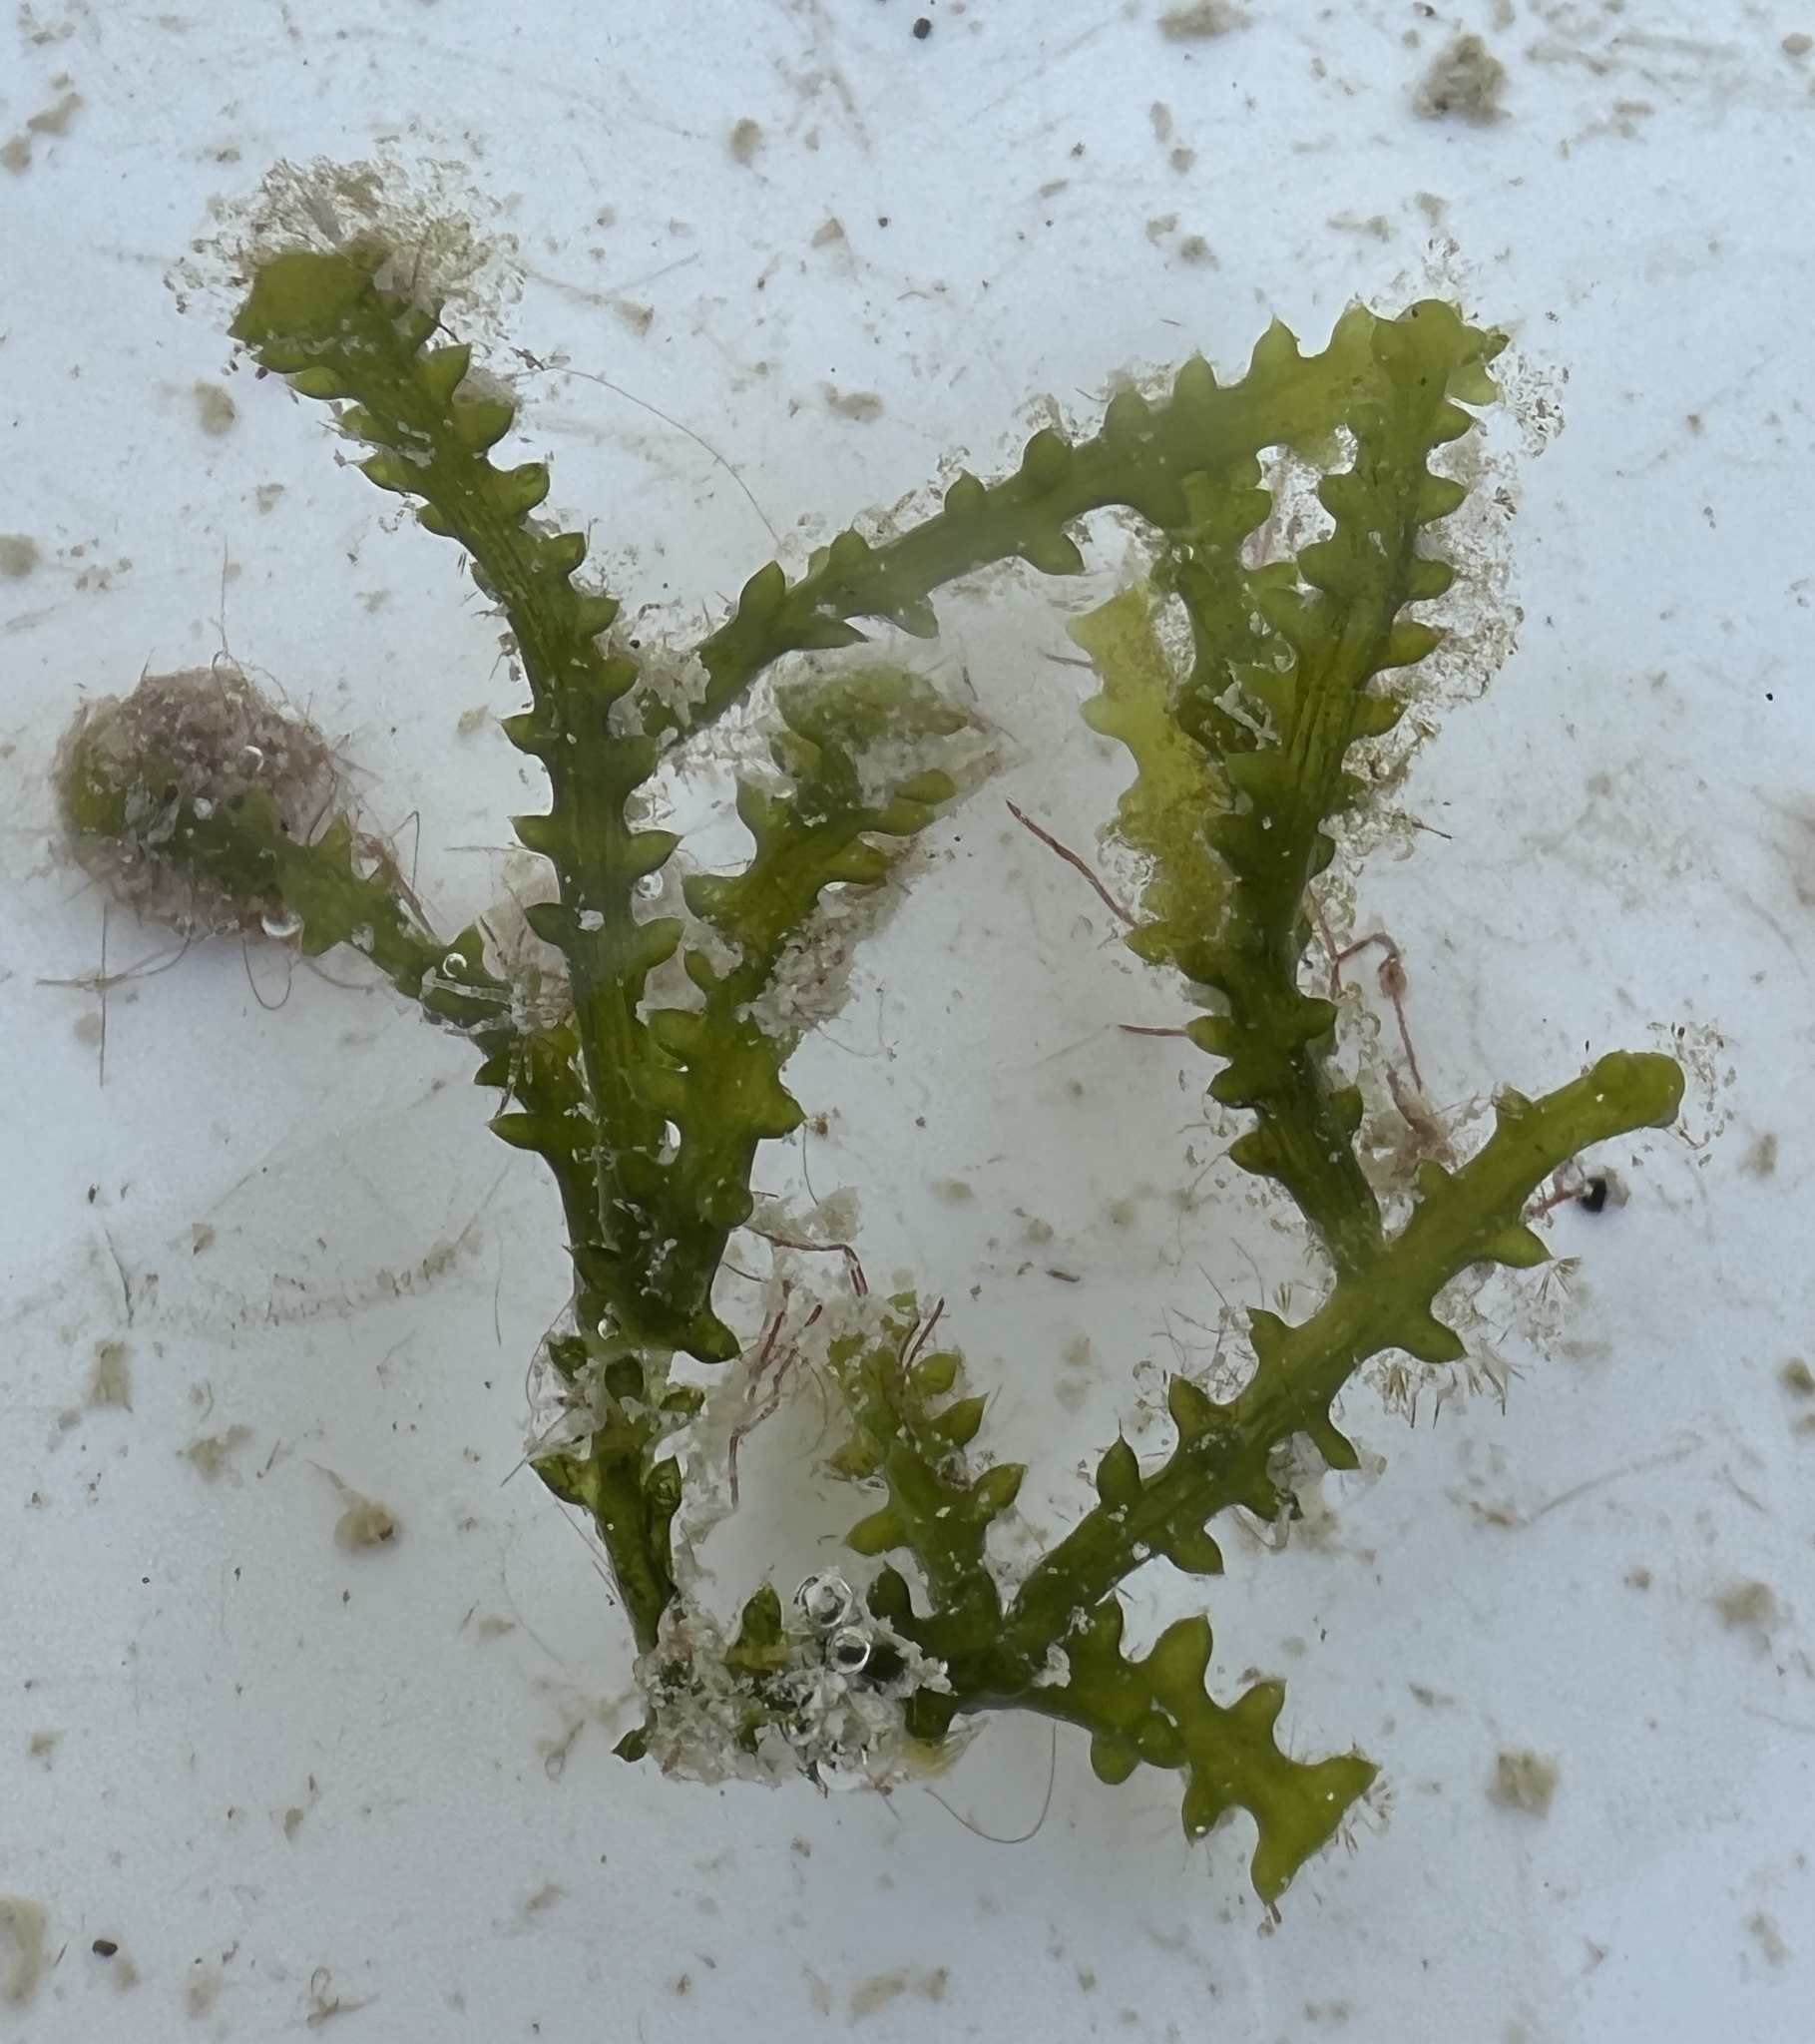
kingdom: Plantae
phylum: Chlorophyta
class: Ulvophyceae
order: Bryopsidales
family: Caulerpaceae
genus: Caulerpa
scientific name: Caulerpa cupressoides
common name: Cactus tree algae
